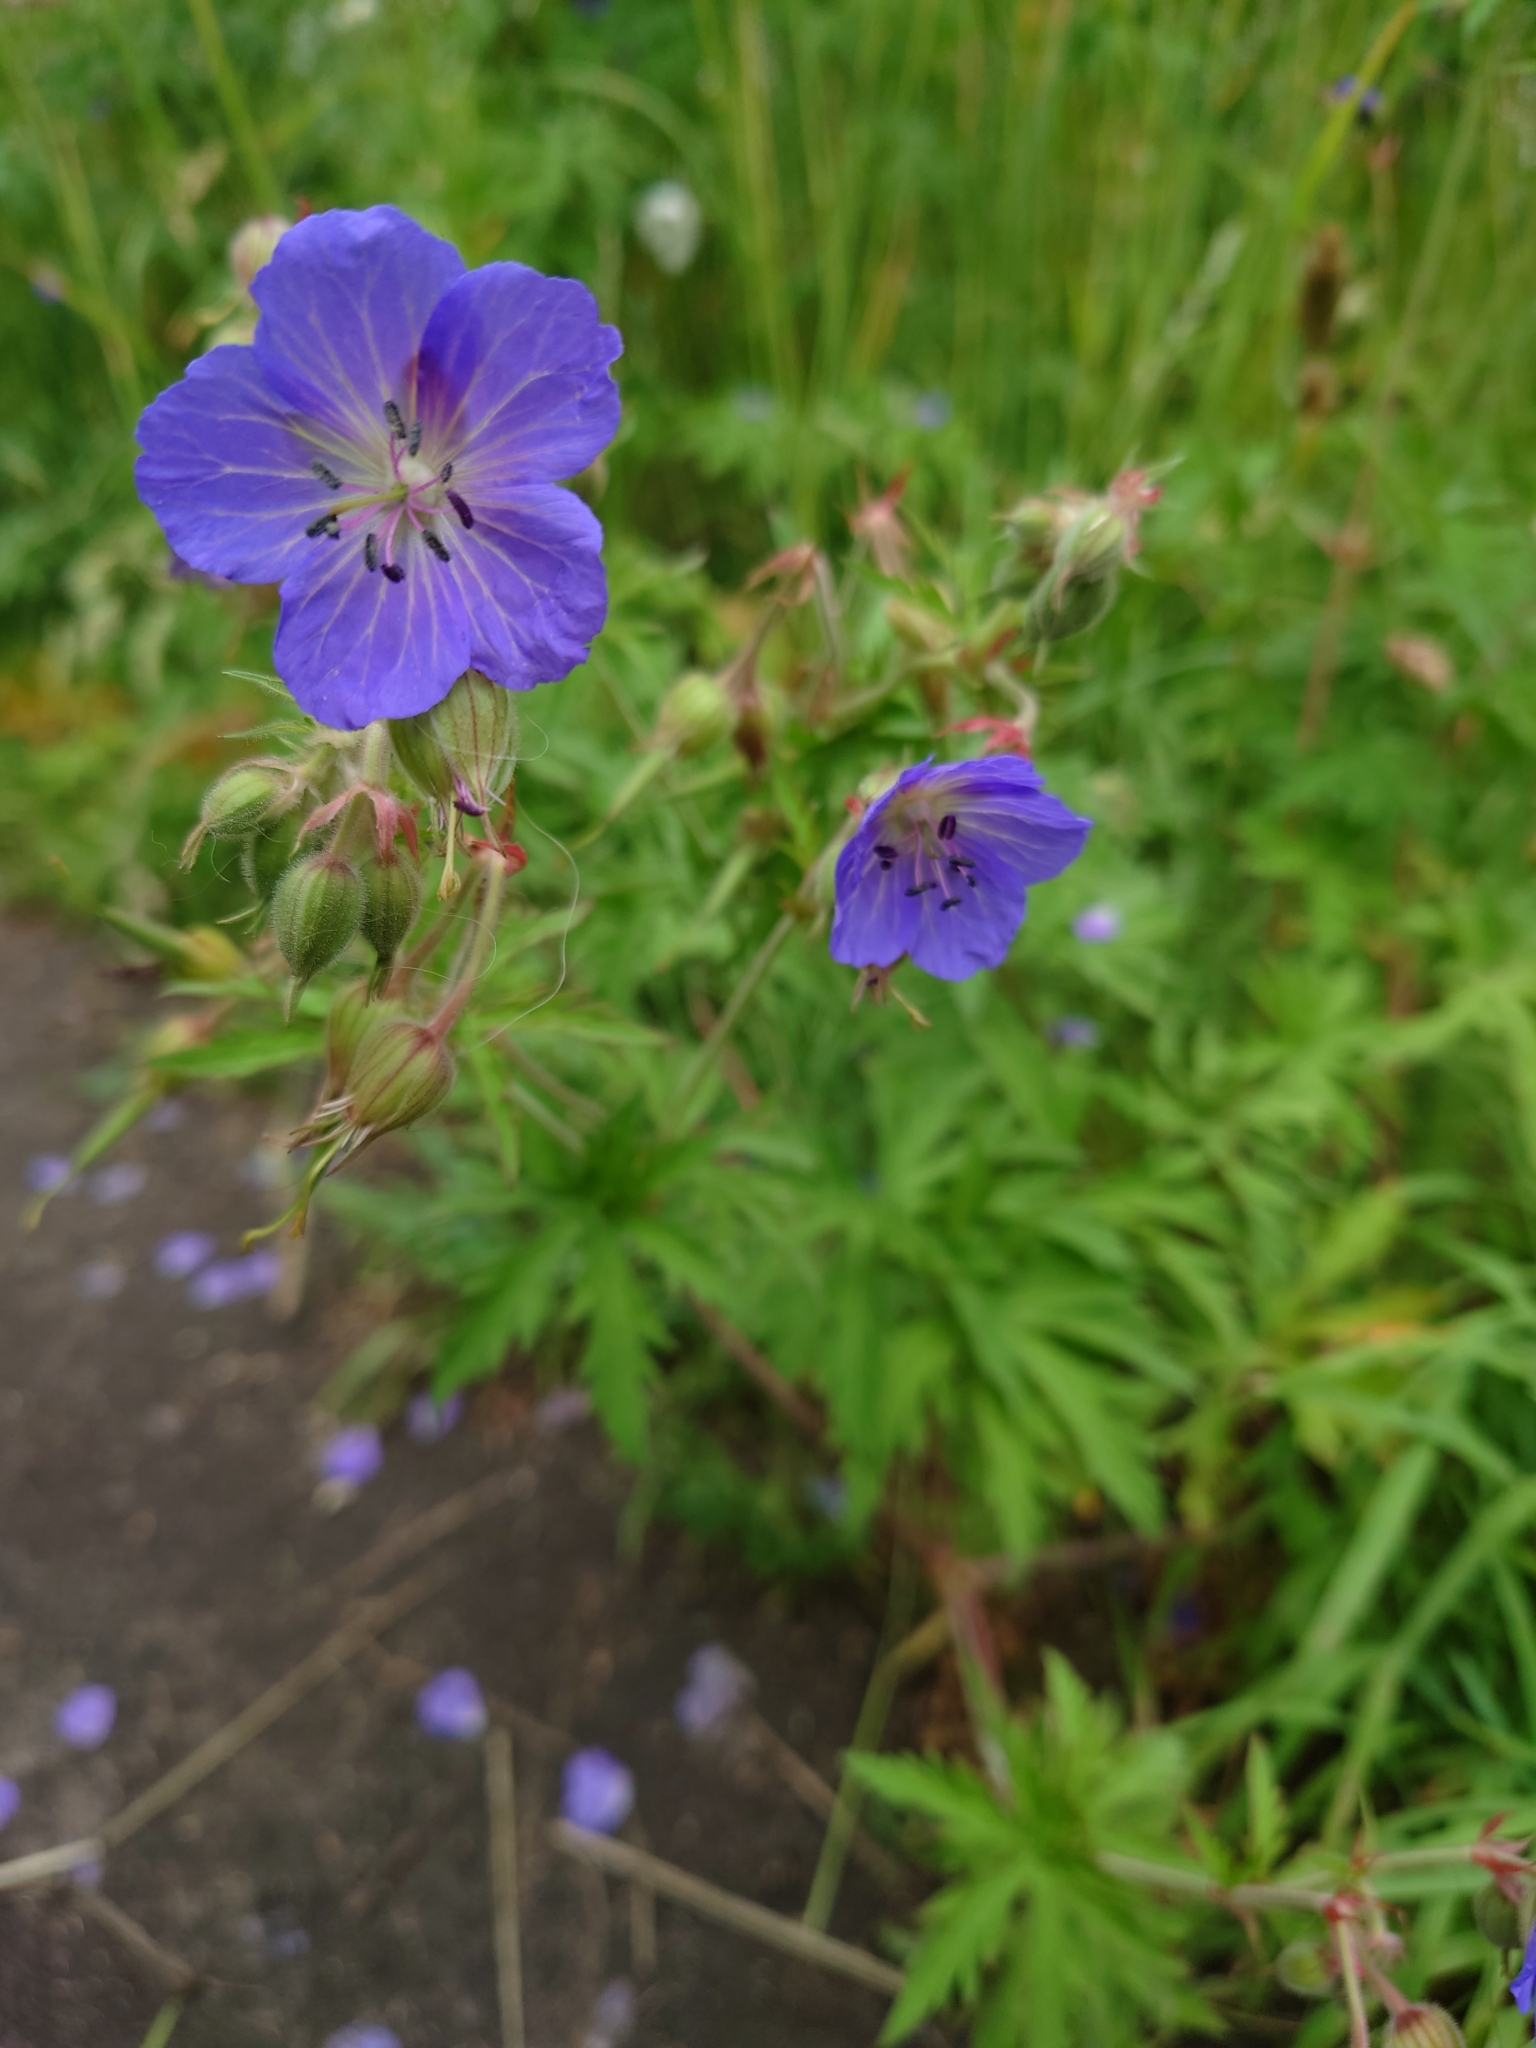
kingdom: Plantae
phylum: Tracheophyta
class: Magnoliopsida
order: Geraniales
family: Geraniaceae
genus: Geranium
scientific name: Geranium pratense
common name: Meadow crane's-bill
